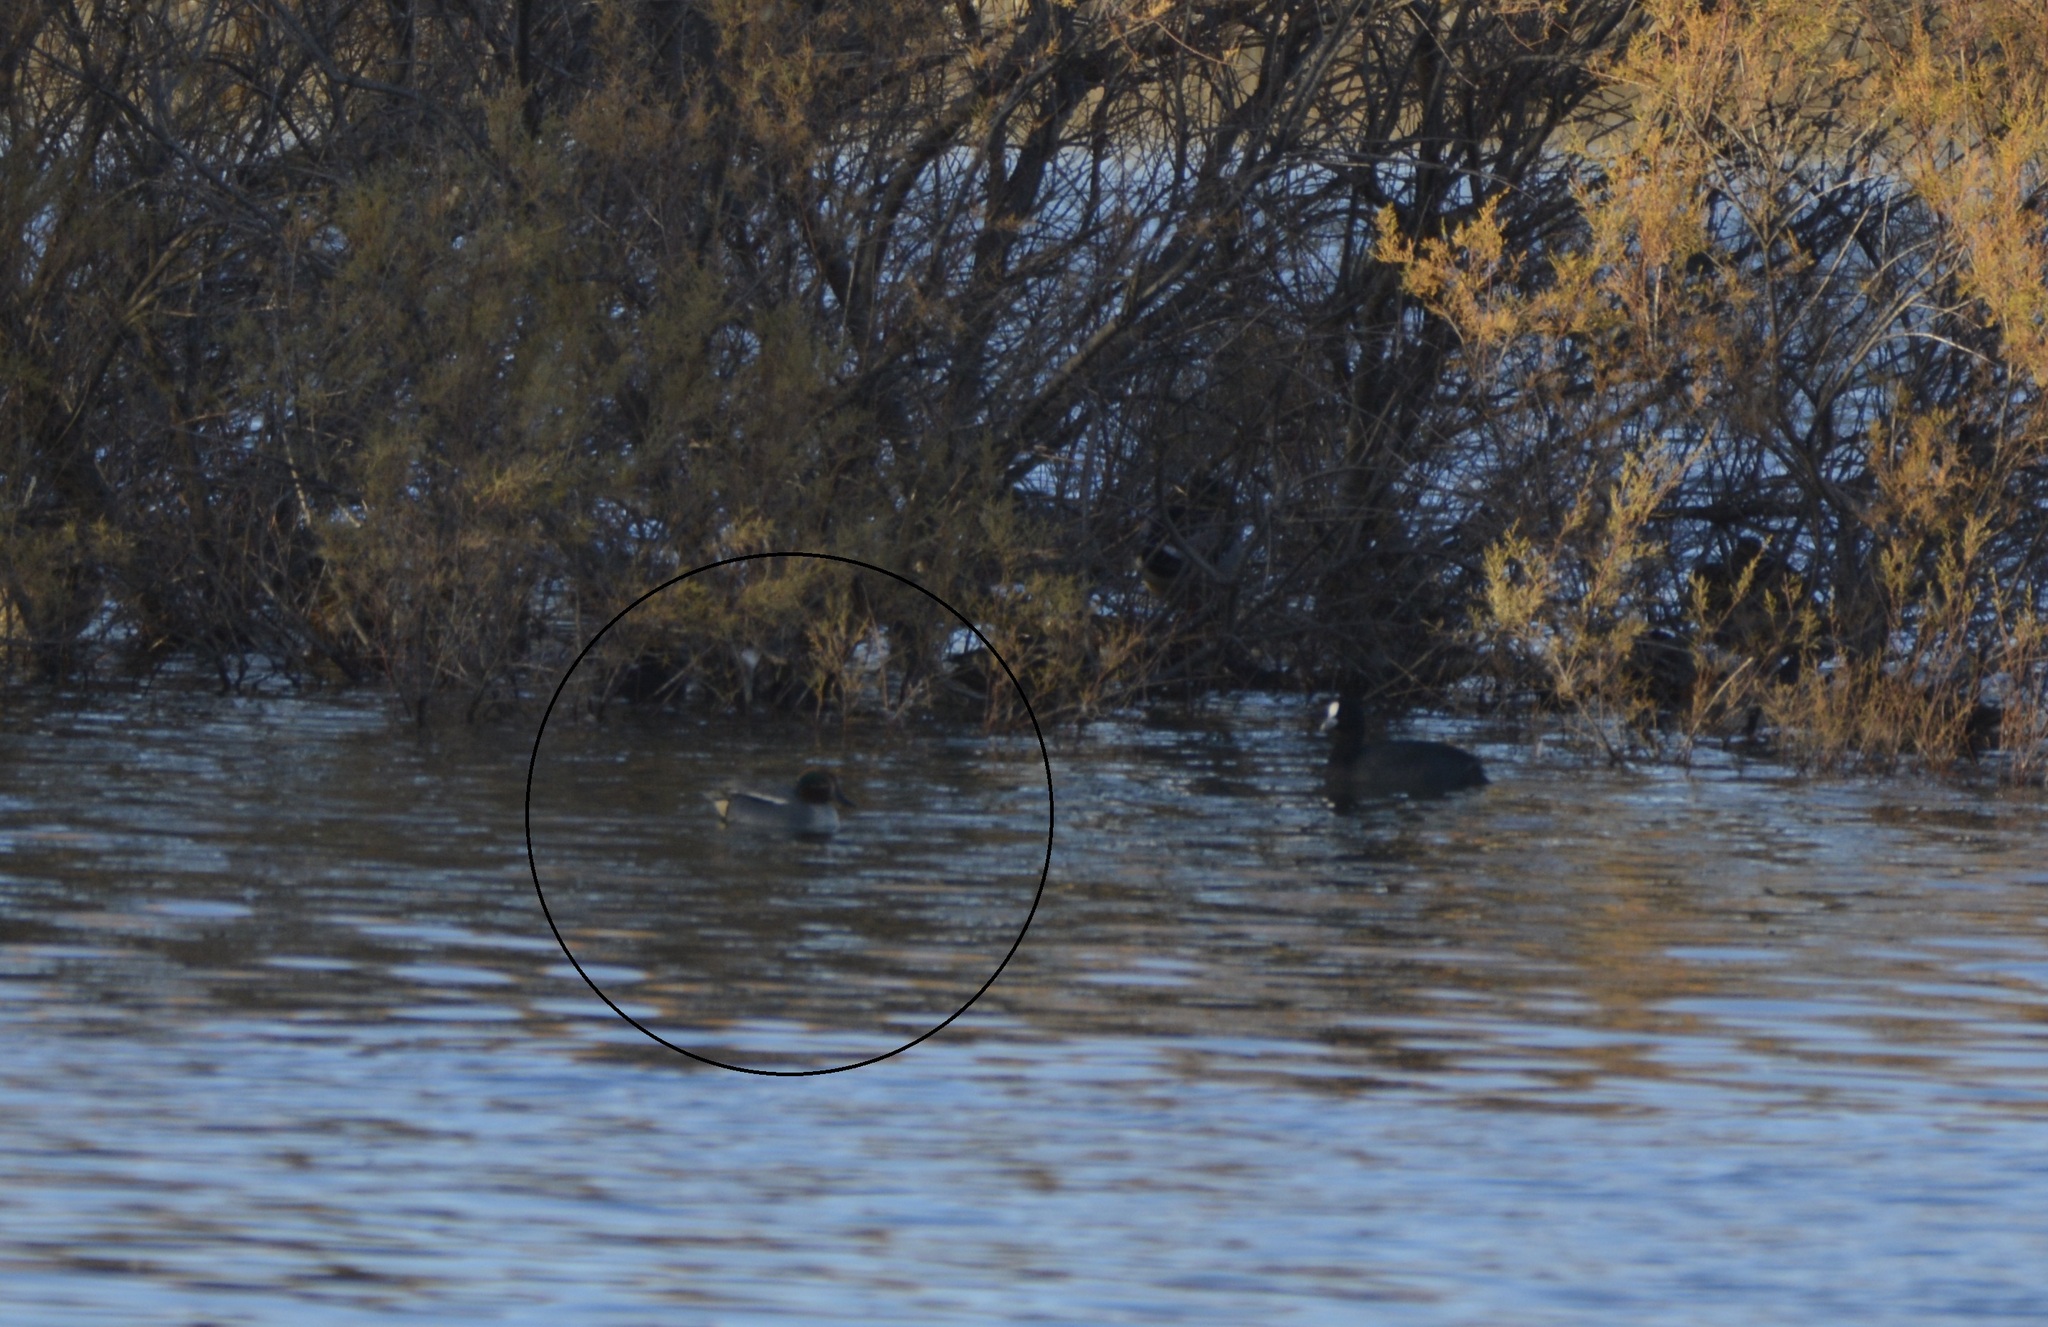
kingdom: Animalia
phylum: Chordata
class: Aves
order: Anseriformes
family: Anatidae
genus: Anas
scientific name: Anas crecca
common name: Eurasian teal
